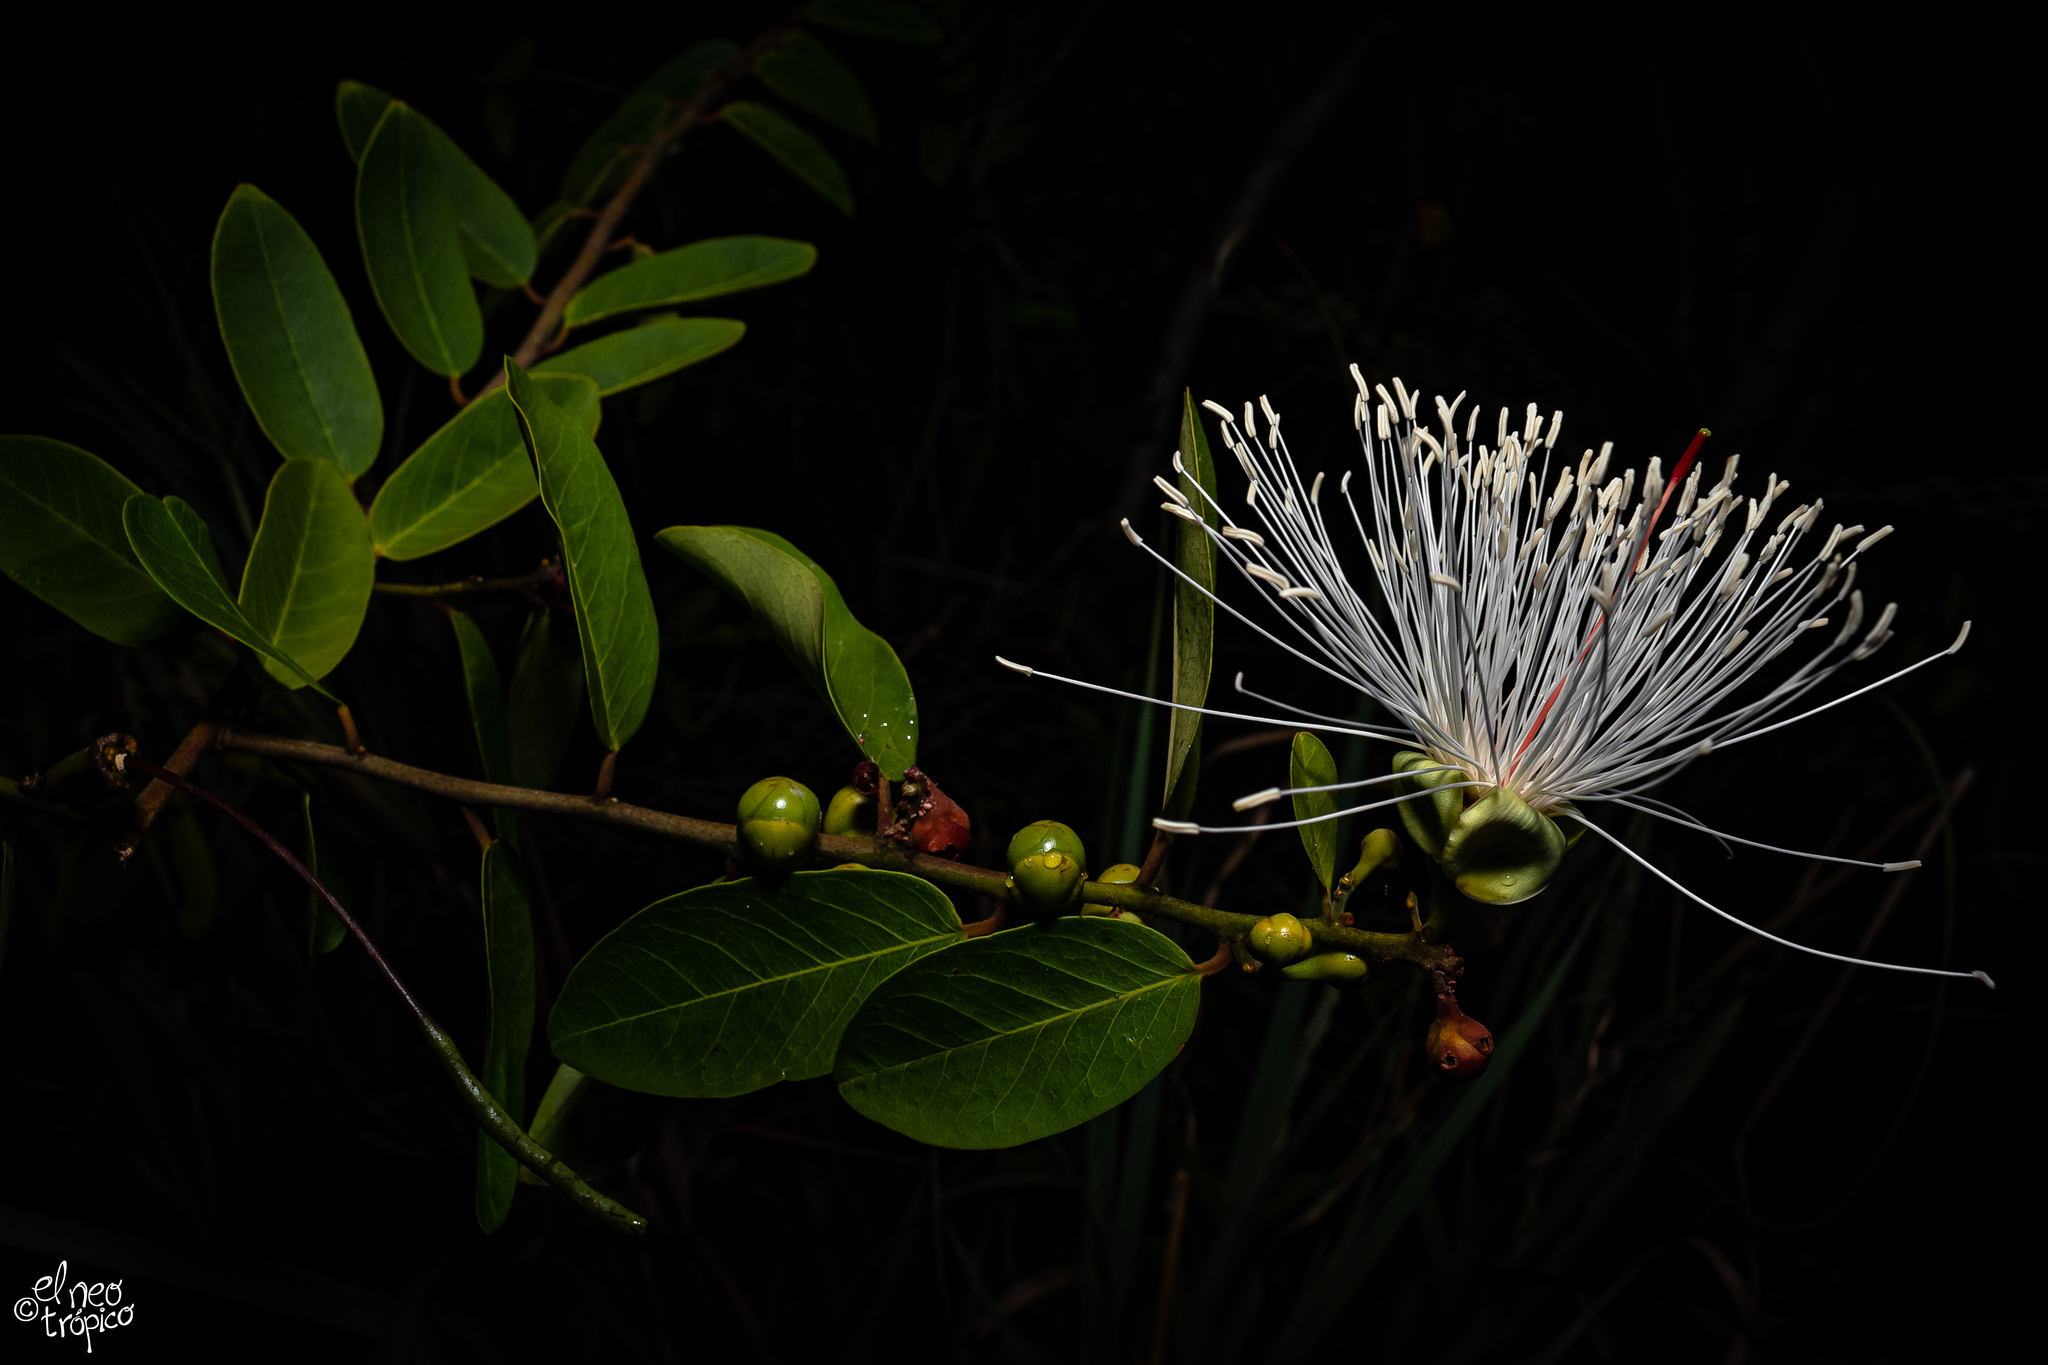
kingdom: Plantae
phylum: Tracheophyta
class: Magnoliopsida
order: Brassicales
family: Capparaceae
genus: Cynophalla
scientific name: Cynophalla flexuosa
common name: Capertree
